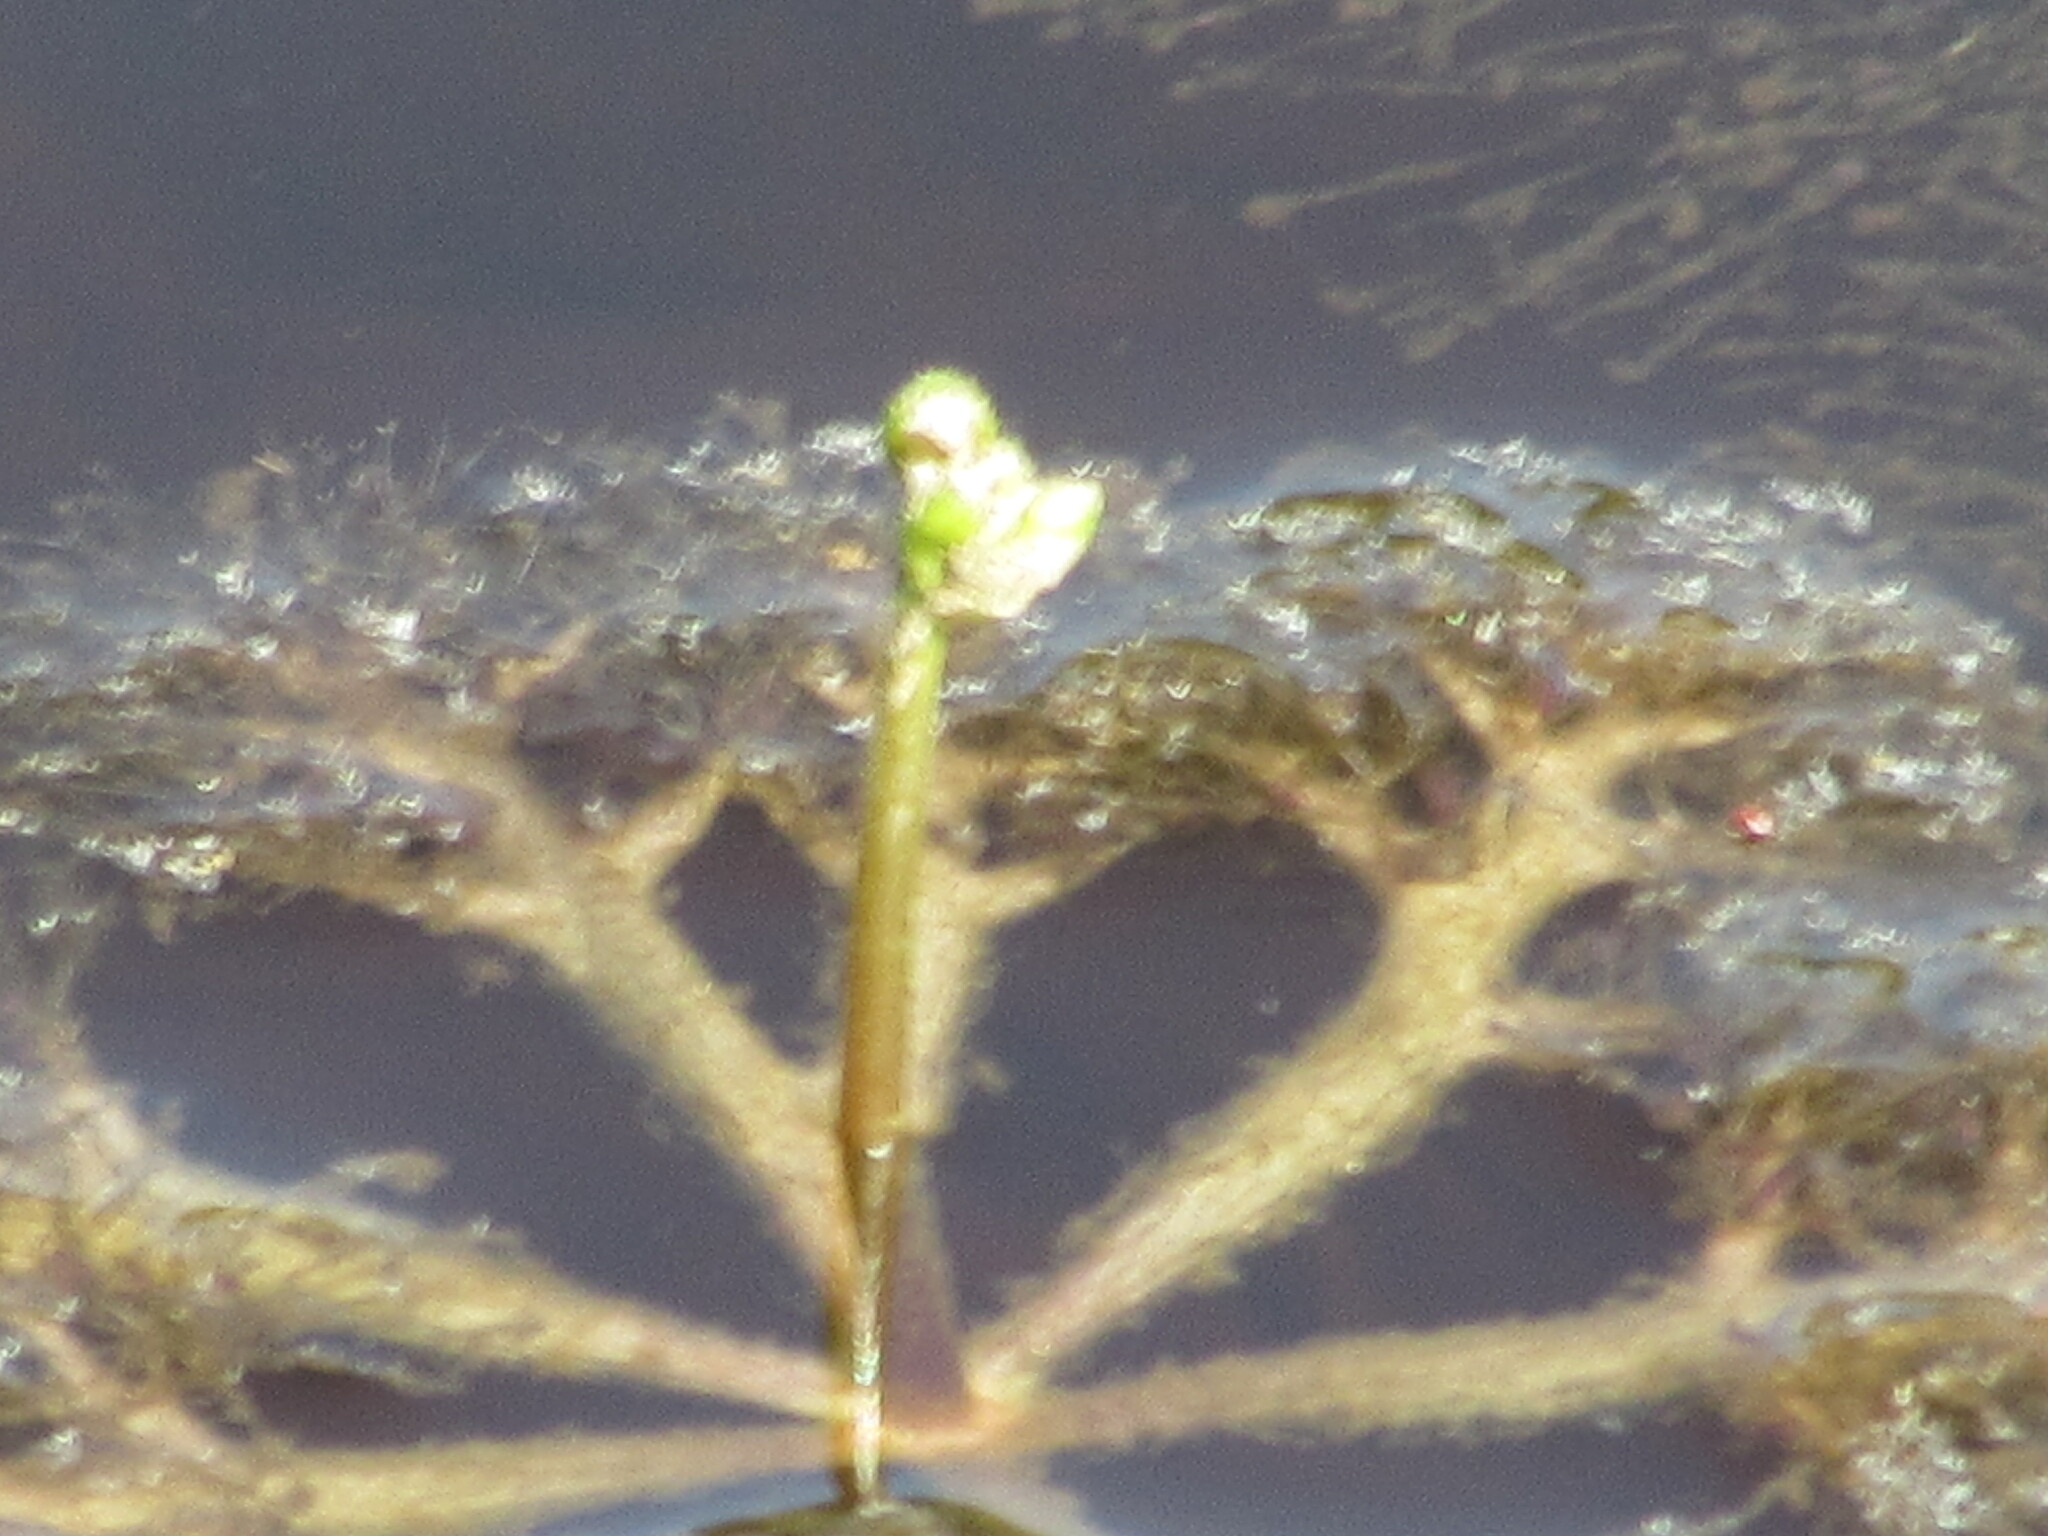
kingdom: Plantae
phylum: Tracheophyta
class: Magnoliopsida
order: Lamiales
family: Lentibulariaceae
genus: Utricularia
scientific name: Utricularia inflata
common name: Floating bladderwort
